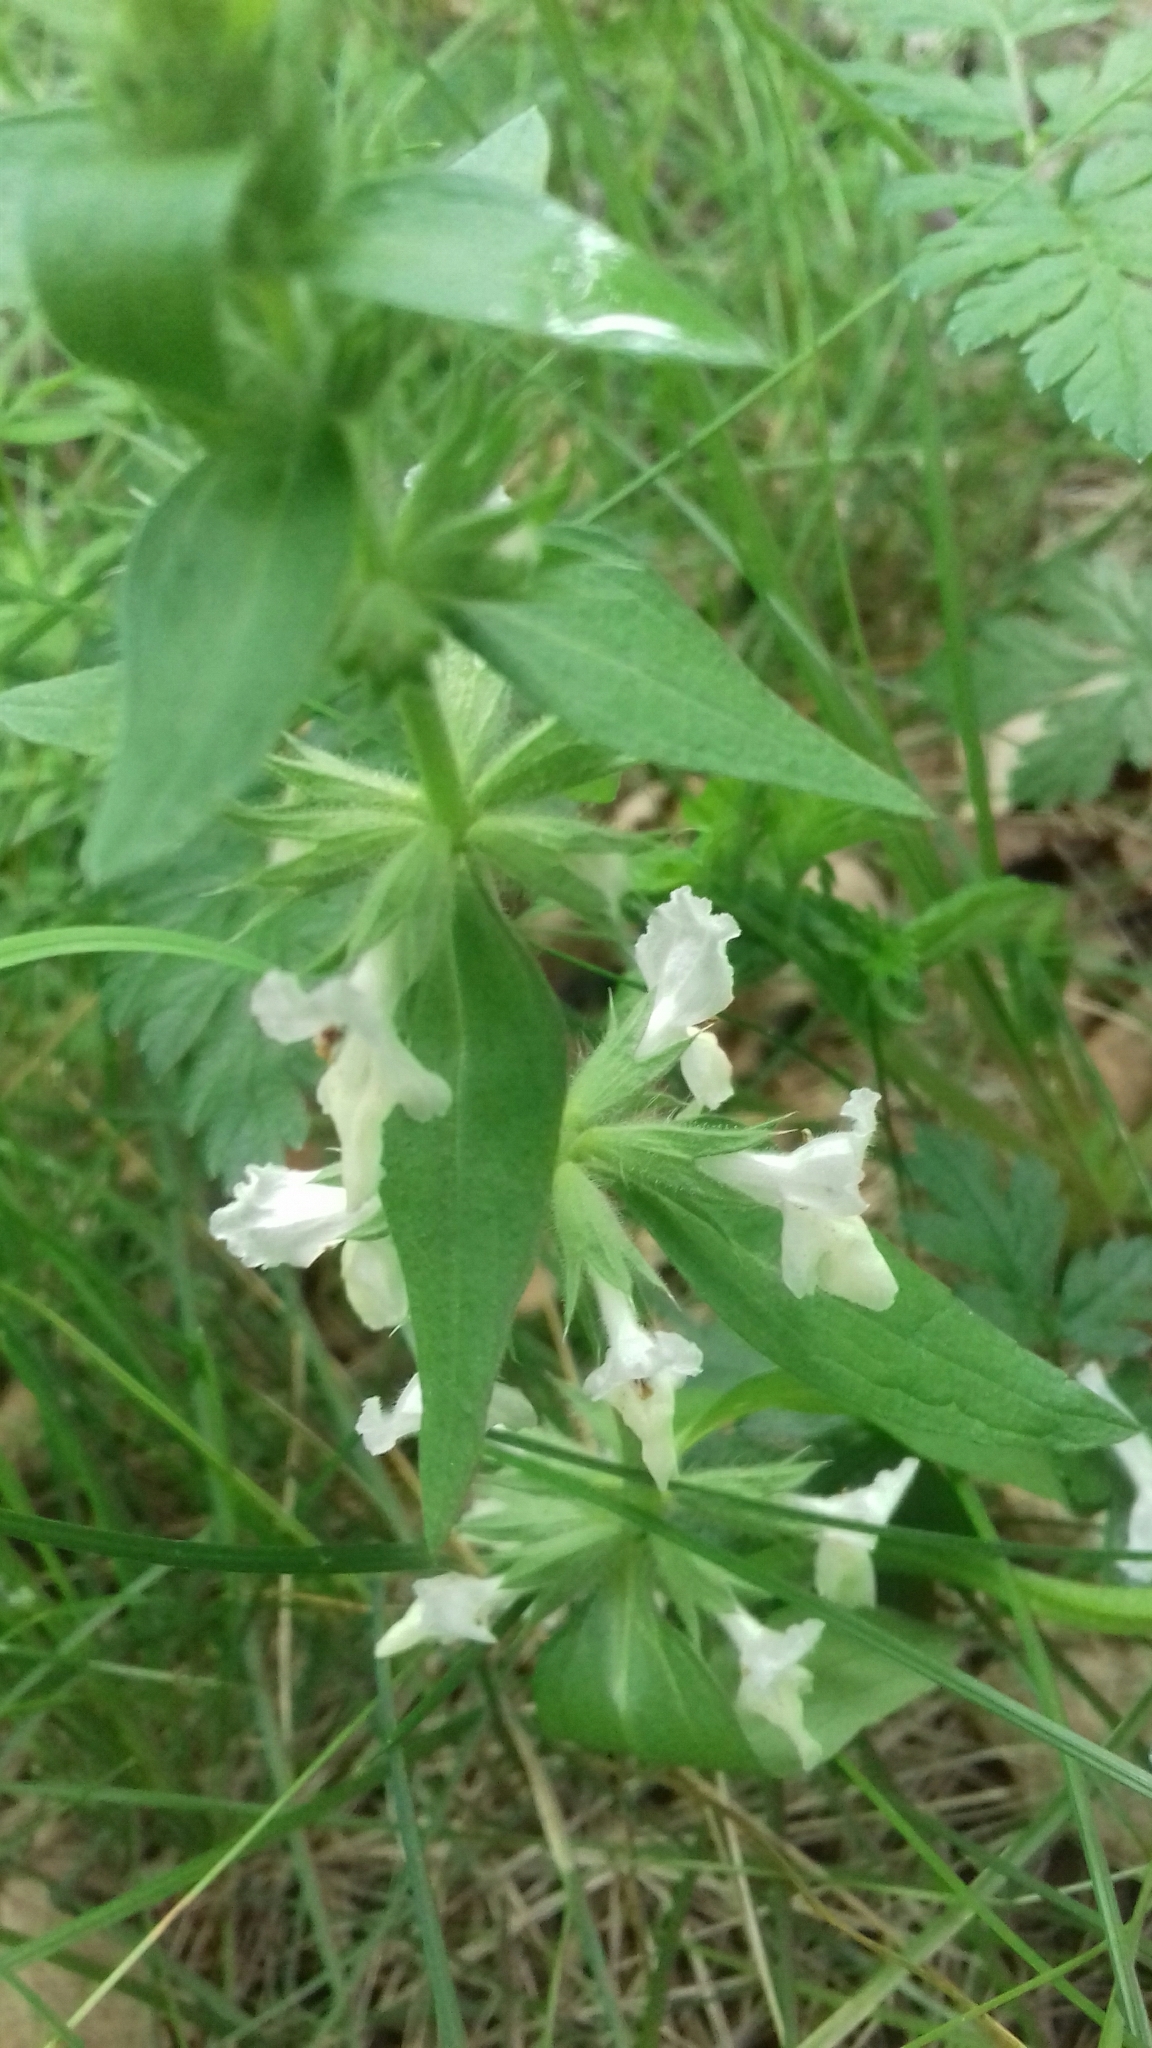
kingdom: Plantae
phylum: Tracheophyta
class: Magnoliopsida
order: Lamiales
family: Lamiaceae
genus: Stachys
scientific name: Stachys annua
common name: Annual yellow-woundwort
